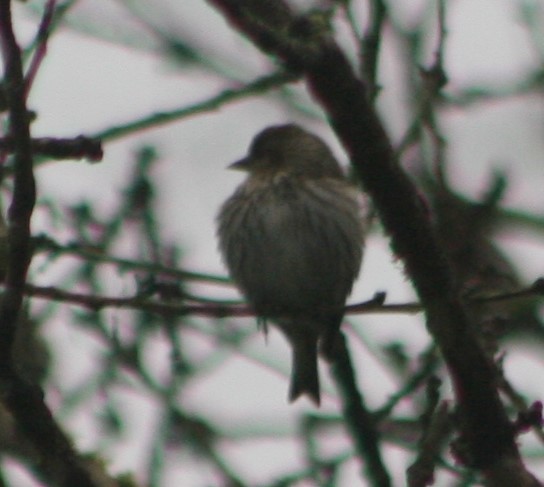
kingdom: Animalia
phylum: Chordata
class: Aves
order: Passeriformes
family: Fringillidae
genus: Spinus
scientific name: Spinus pinus
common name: Pine siskin
